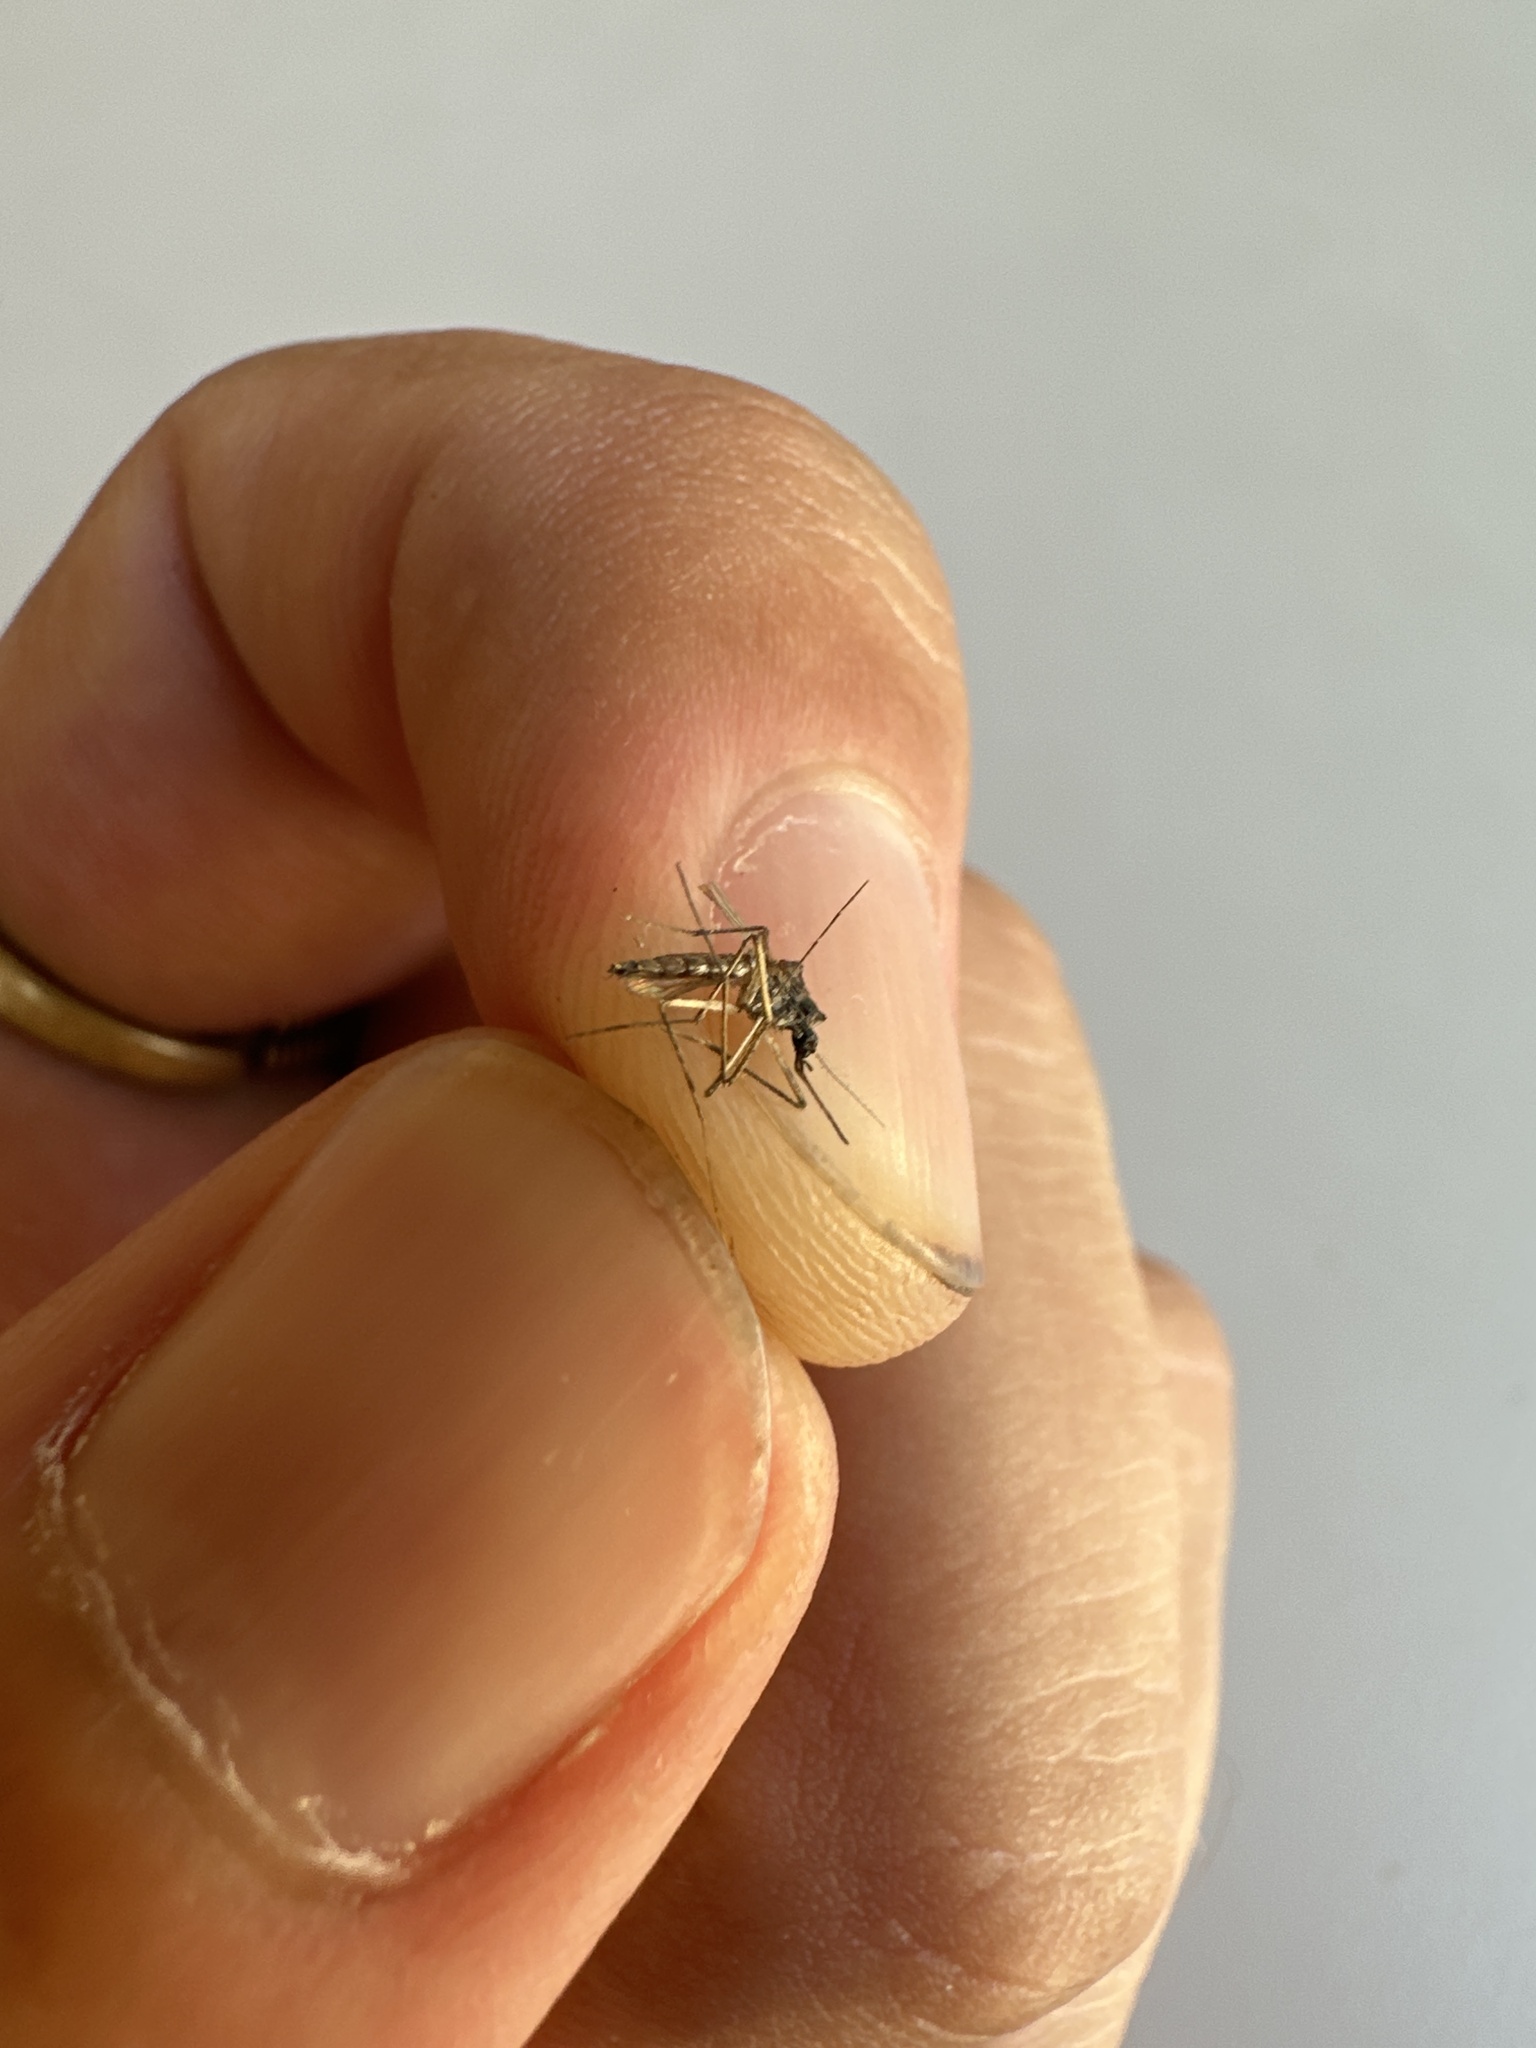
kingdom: Animalia
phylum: Arthropoda
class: Insecta
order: Diptera
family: Culicidae
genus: Aedes
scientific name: Aedes vexans
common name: Inland floodwater mosquito
